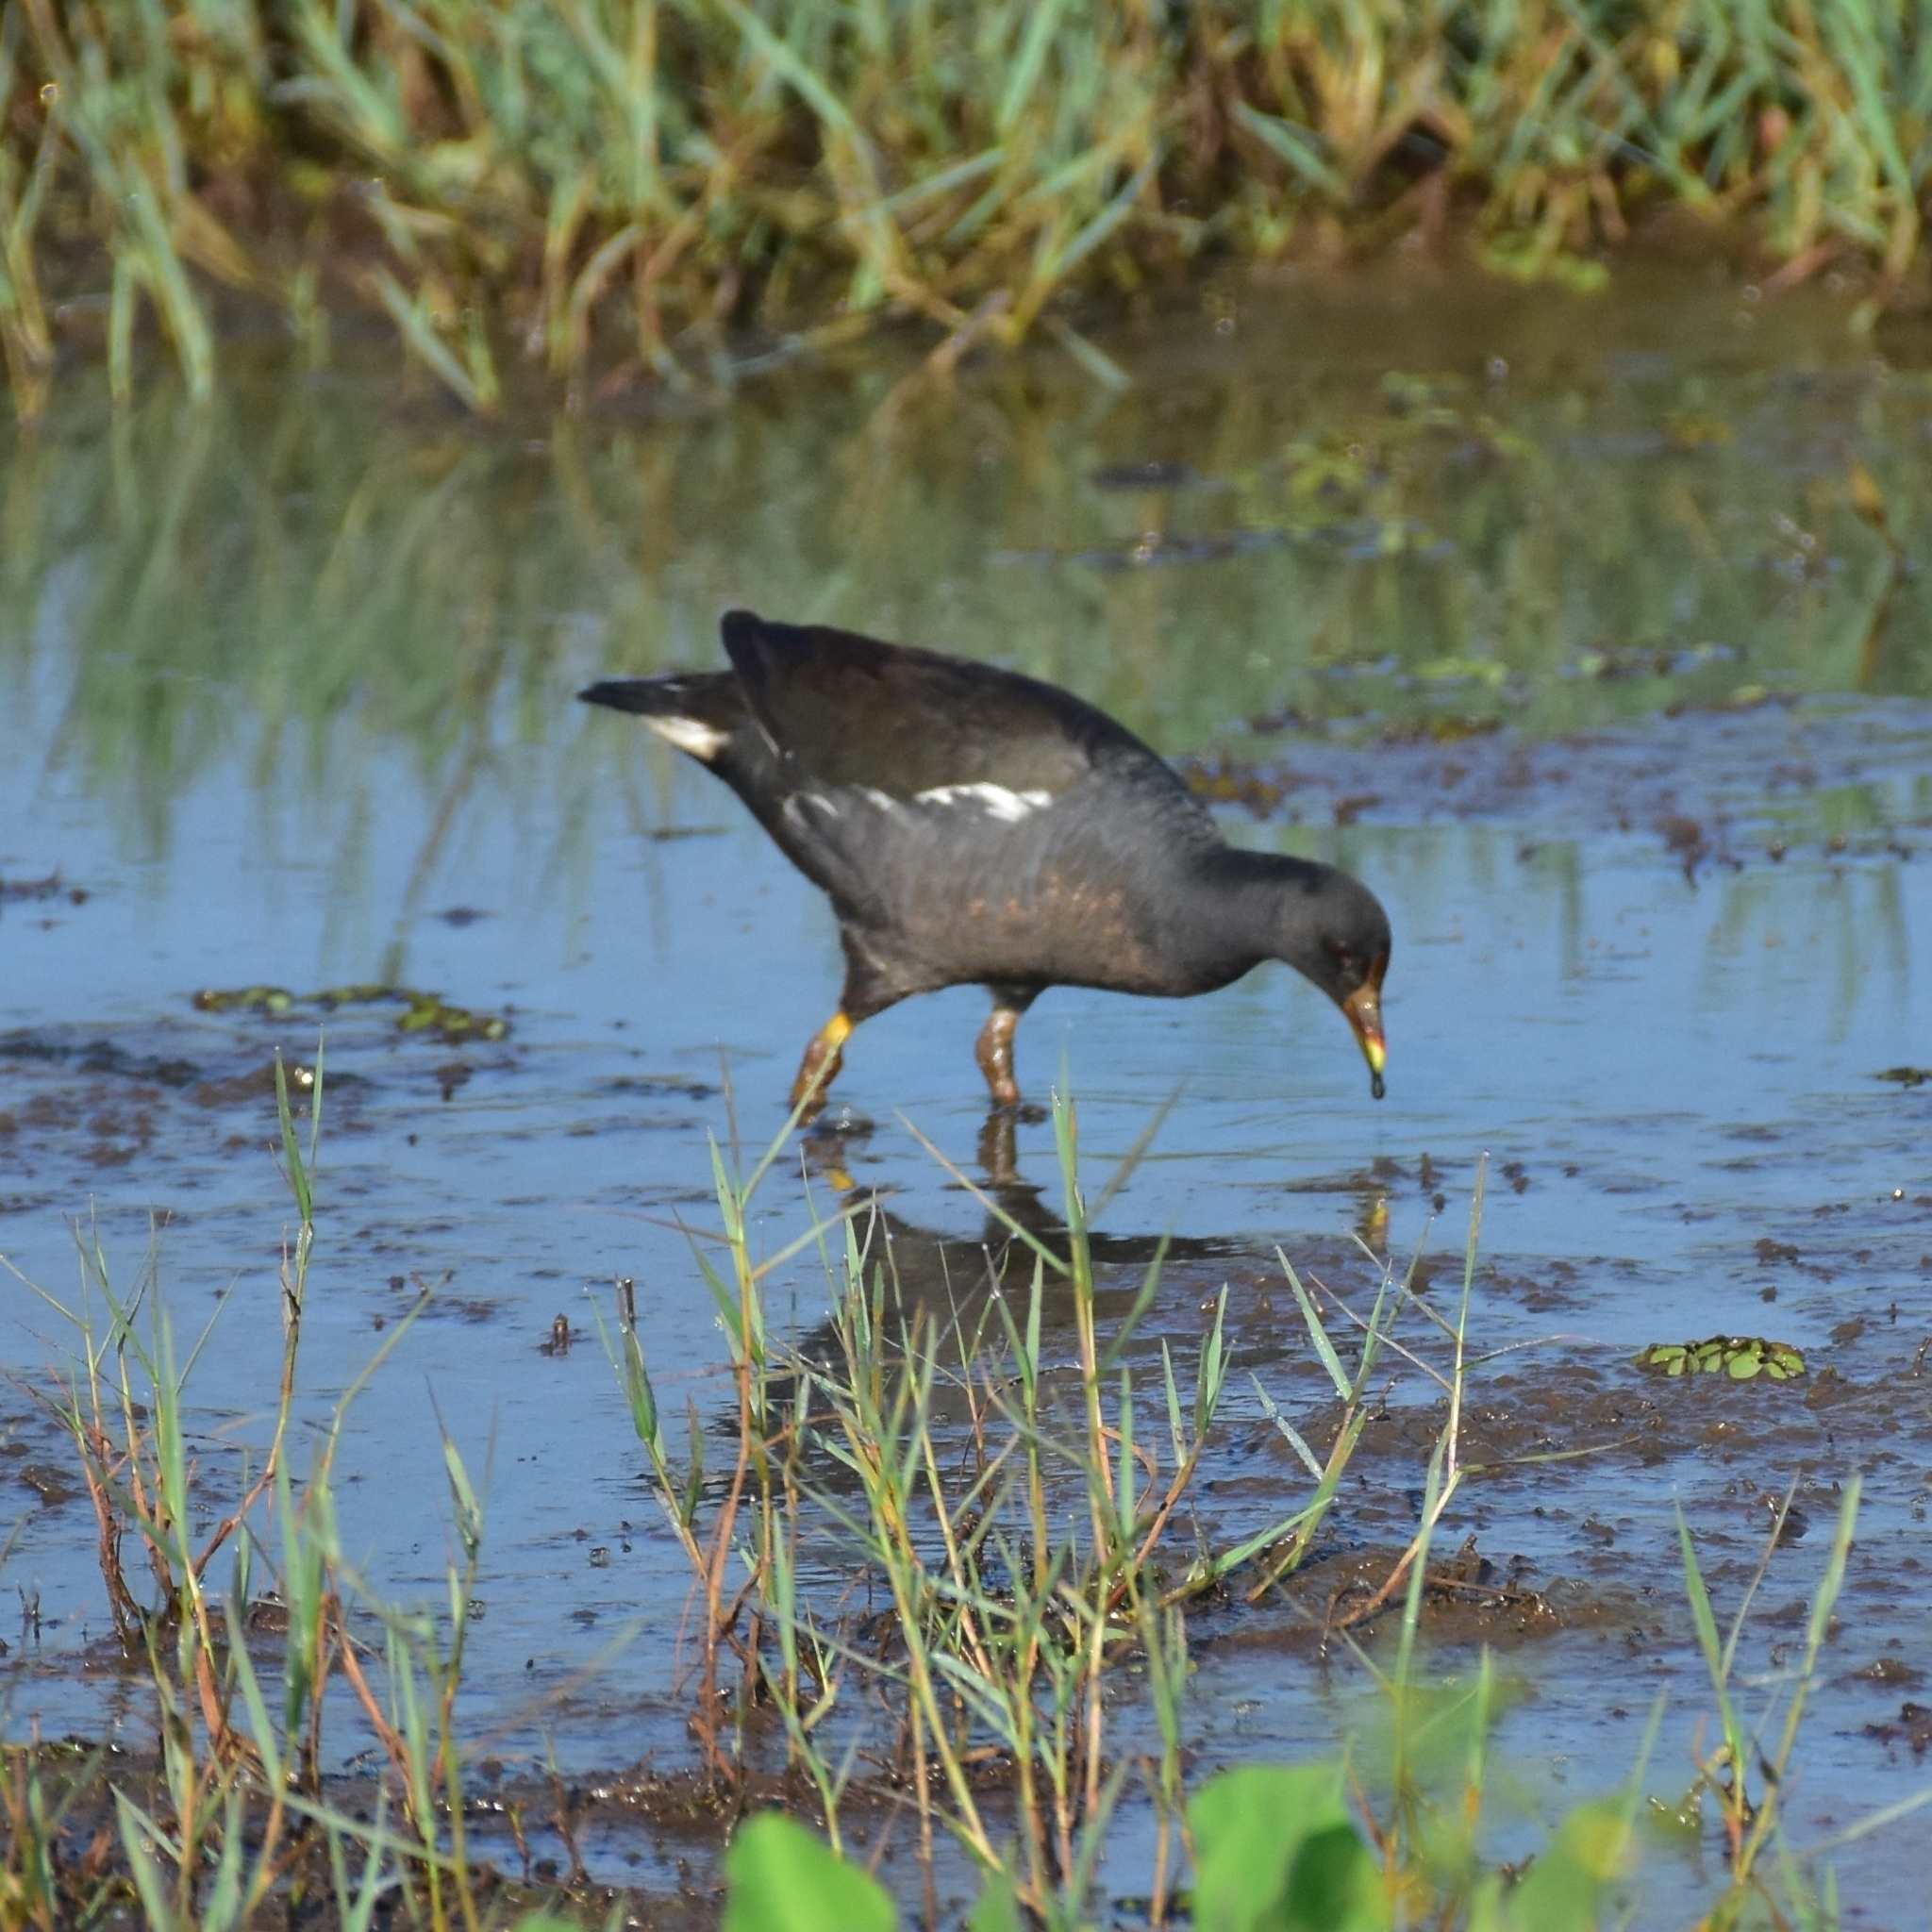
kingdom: Animalia
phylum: Chordata
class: Aves
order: Gruiformes
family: Rallidae
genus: Gallinula
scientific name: Gallinula chloropus
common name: Common moorhen
